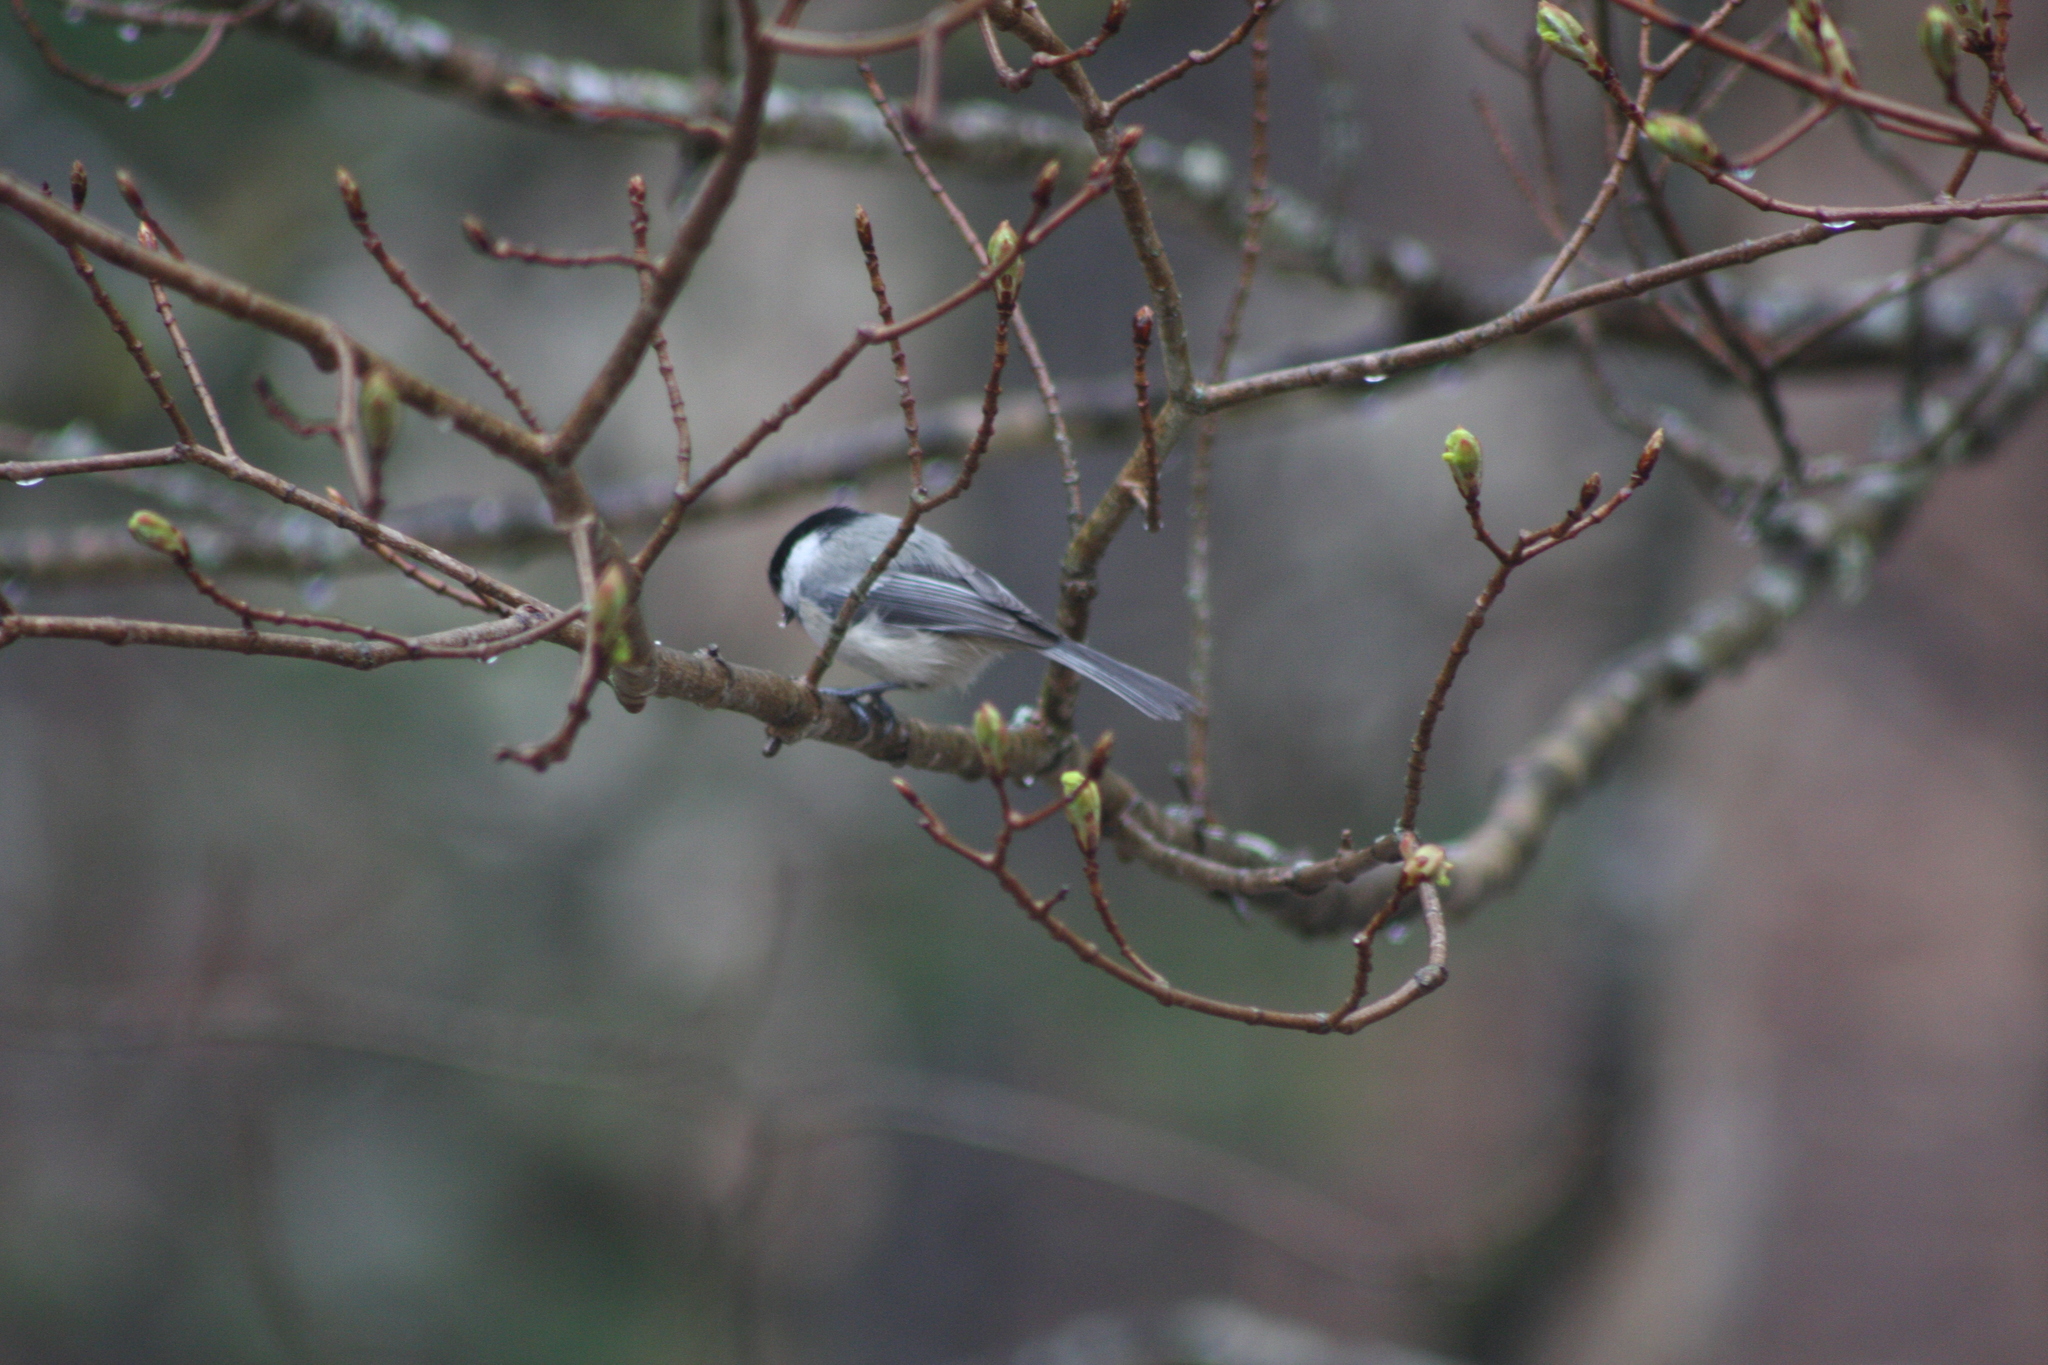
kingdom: Animalia
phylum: Chordata
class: Aves
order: Passeriformes
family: Paridae
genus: Poecile
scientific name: Poecile atricapillus
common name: Black-capped chickadee
